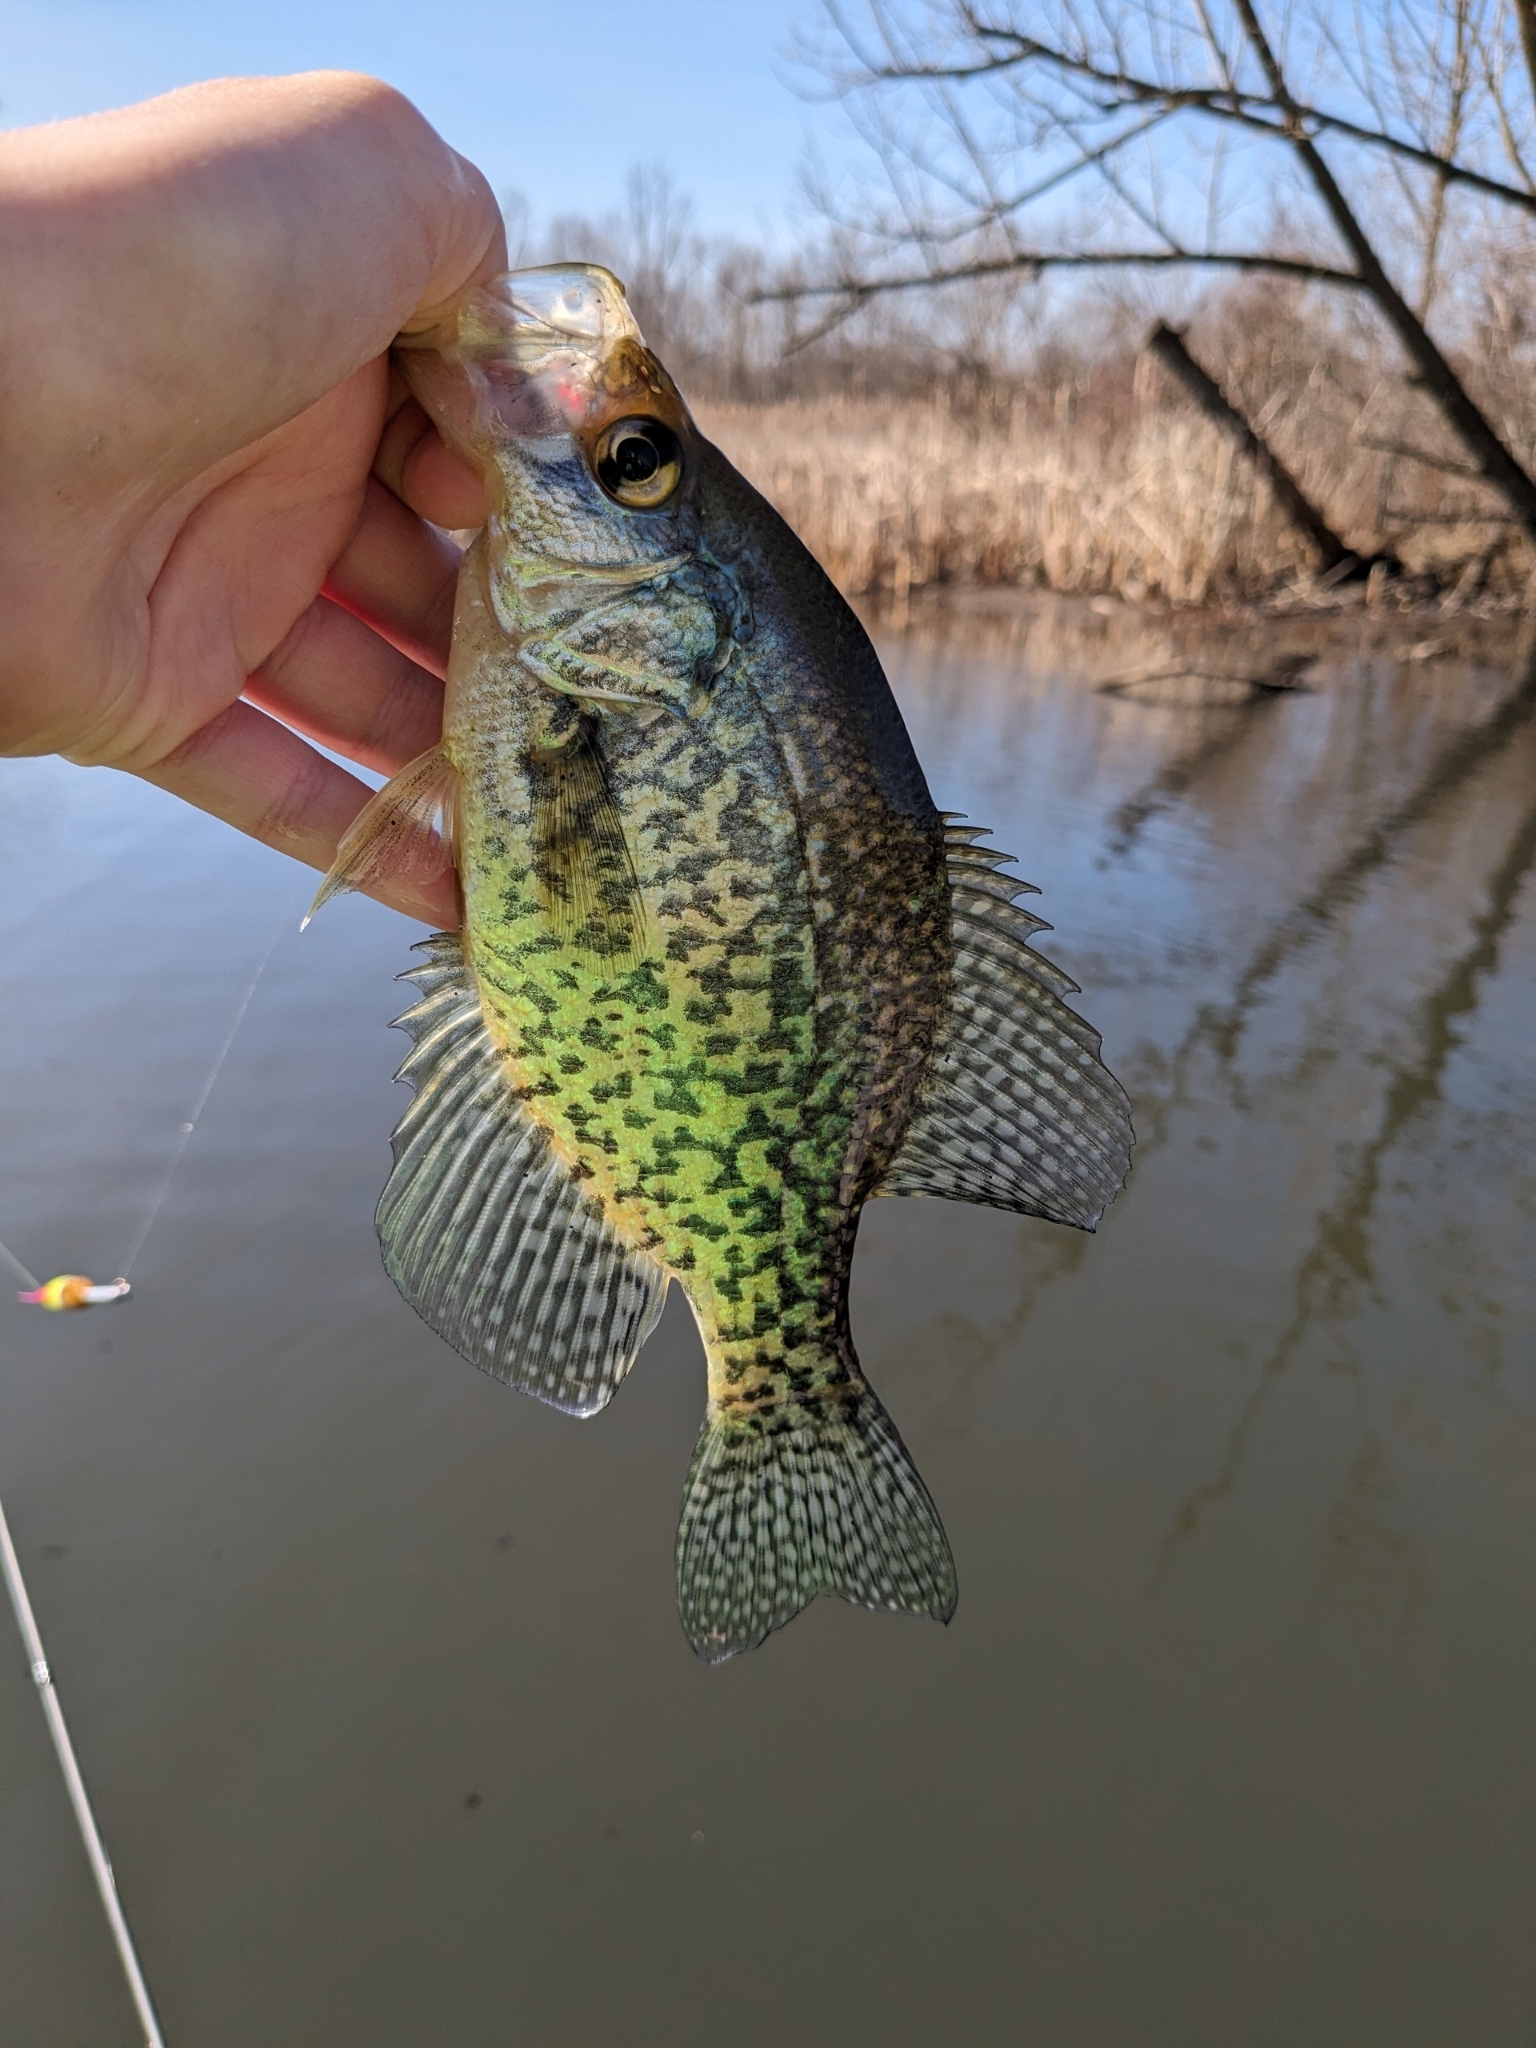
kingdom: Animalia
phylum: Chordata
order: Perciformes
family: Centrarchidae
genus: Pomoxis
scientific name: Pomoxis nigromaculatus
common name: Black crappie
